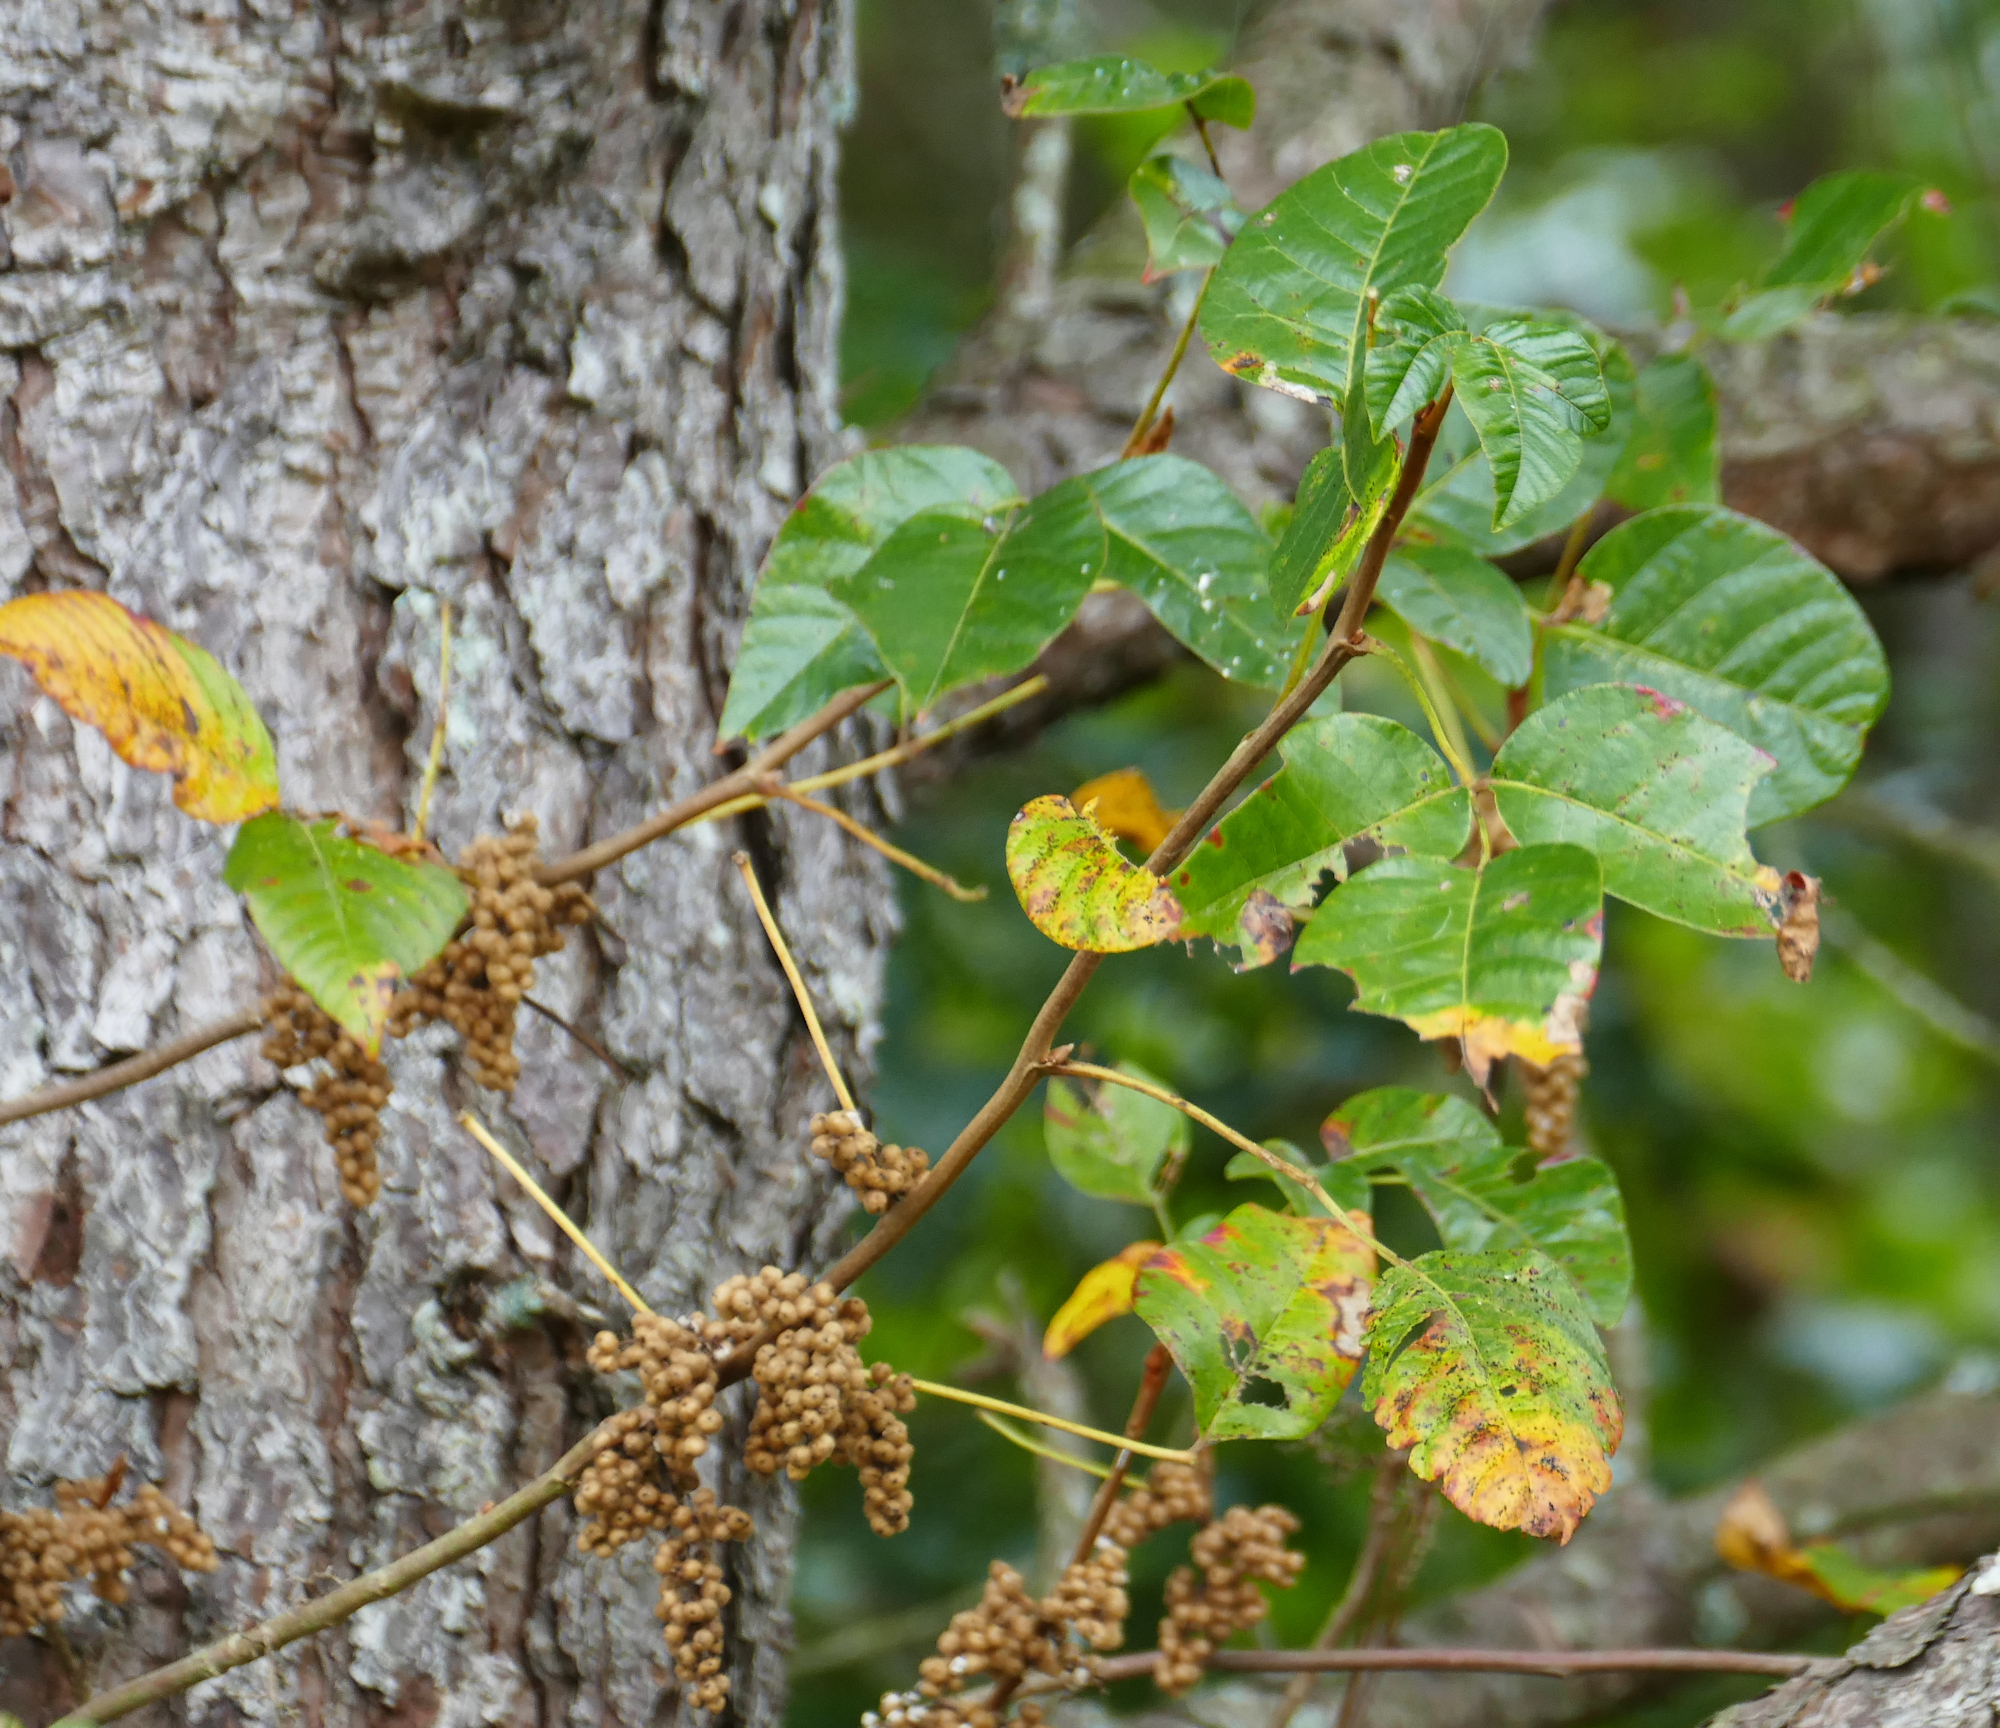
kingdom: Plantae
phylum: Tracheophyta
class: Magnoliopsida
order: Sapindales
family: Anacardiaceae
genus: Toxicodendron
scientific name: Toxicodendron radicans
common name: Poison ivy
